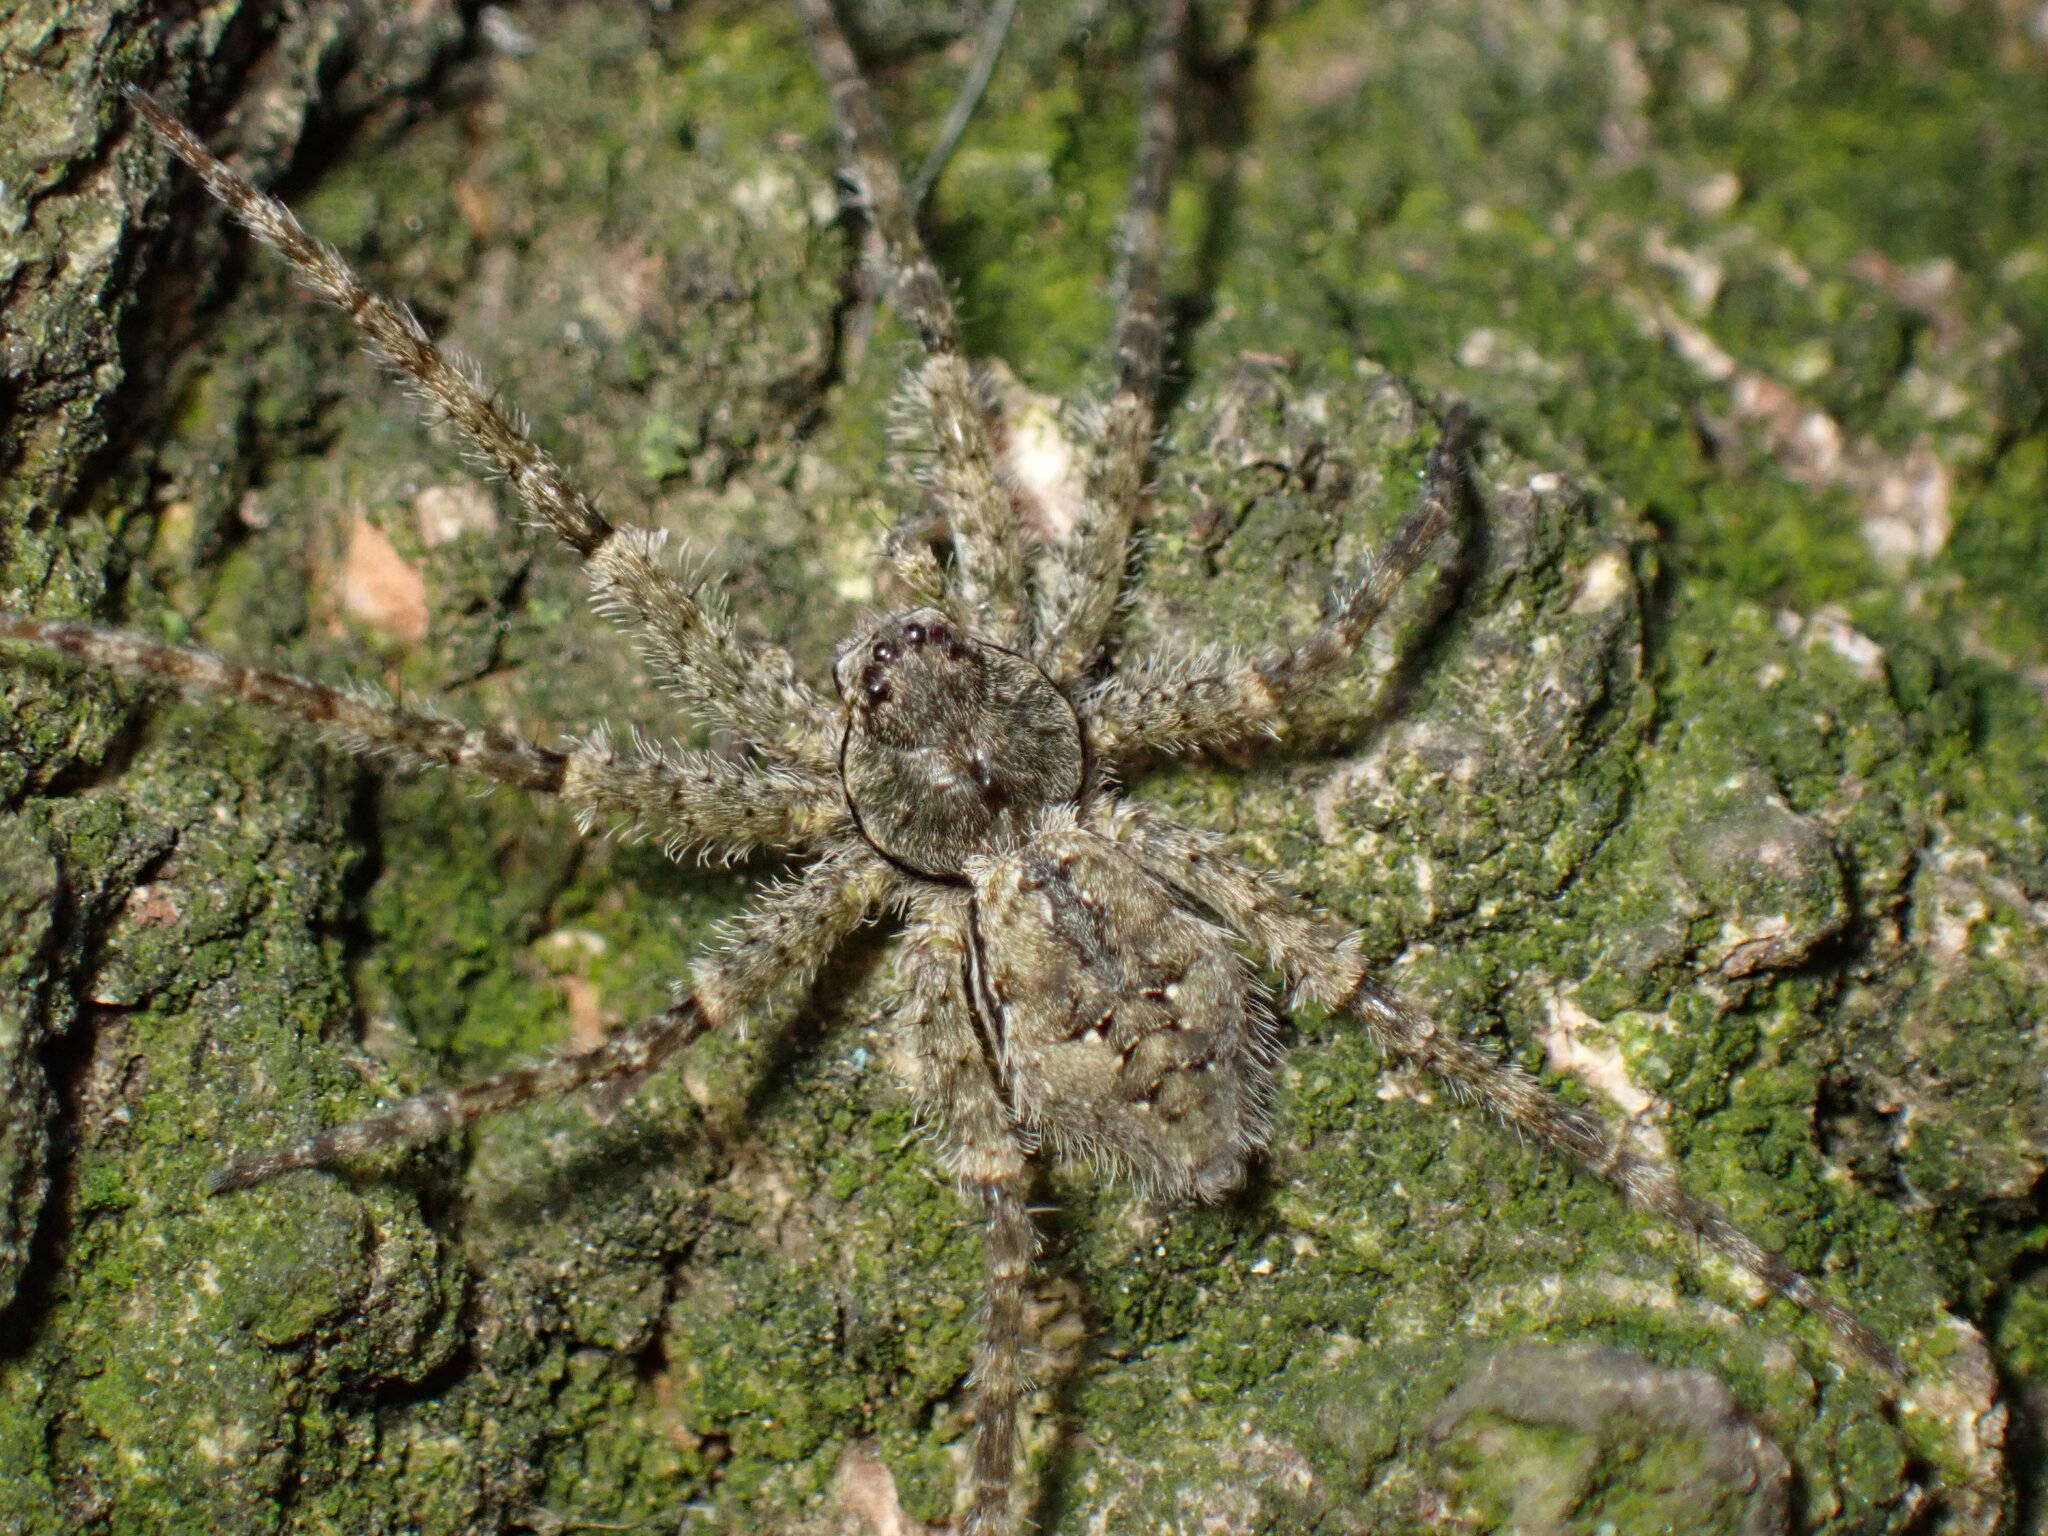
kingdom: Animalia
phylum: Arthropoda
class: Arachnida
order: Araneae
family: Pisauridae
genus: Dolomedes
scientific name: Dolomedes albineus
